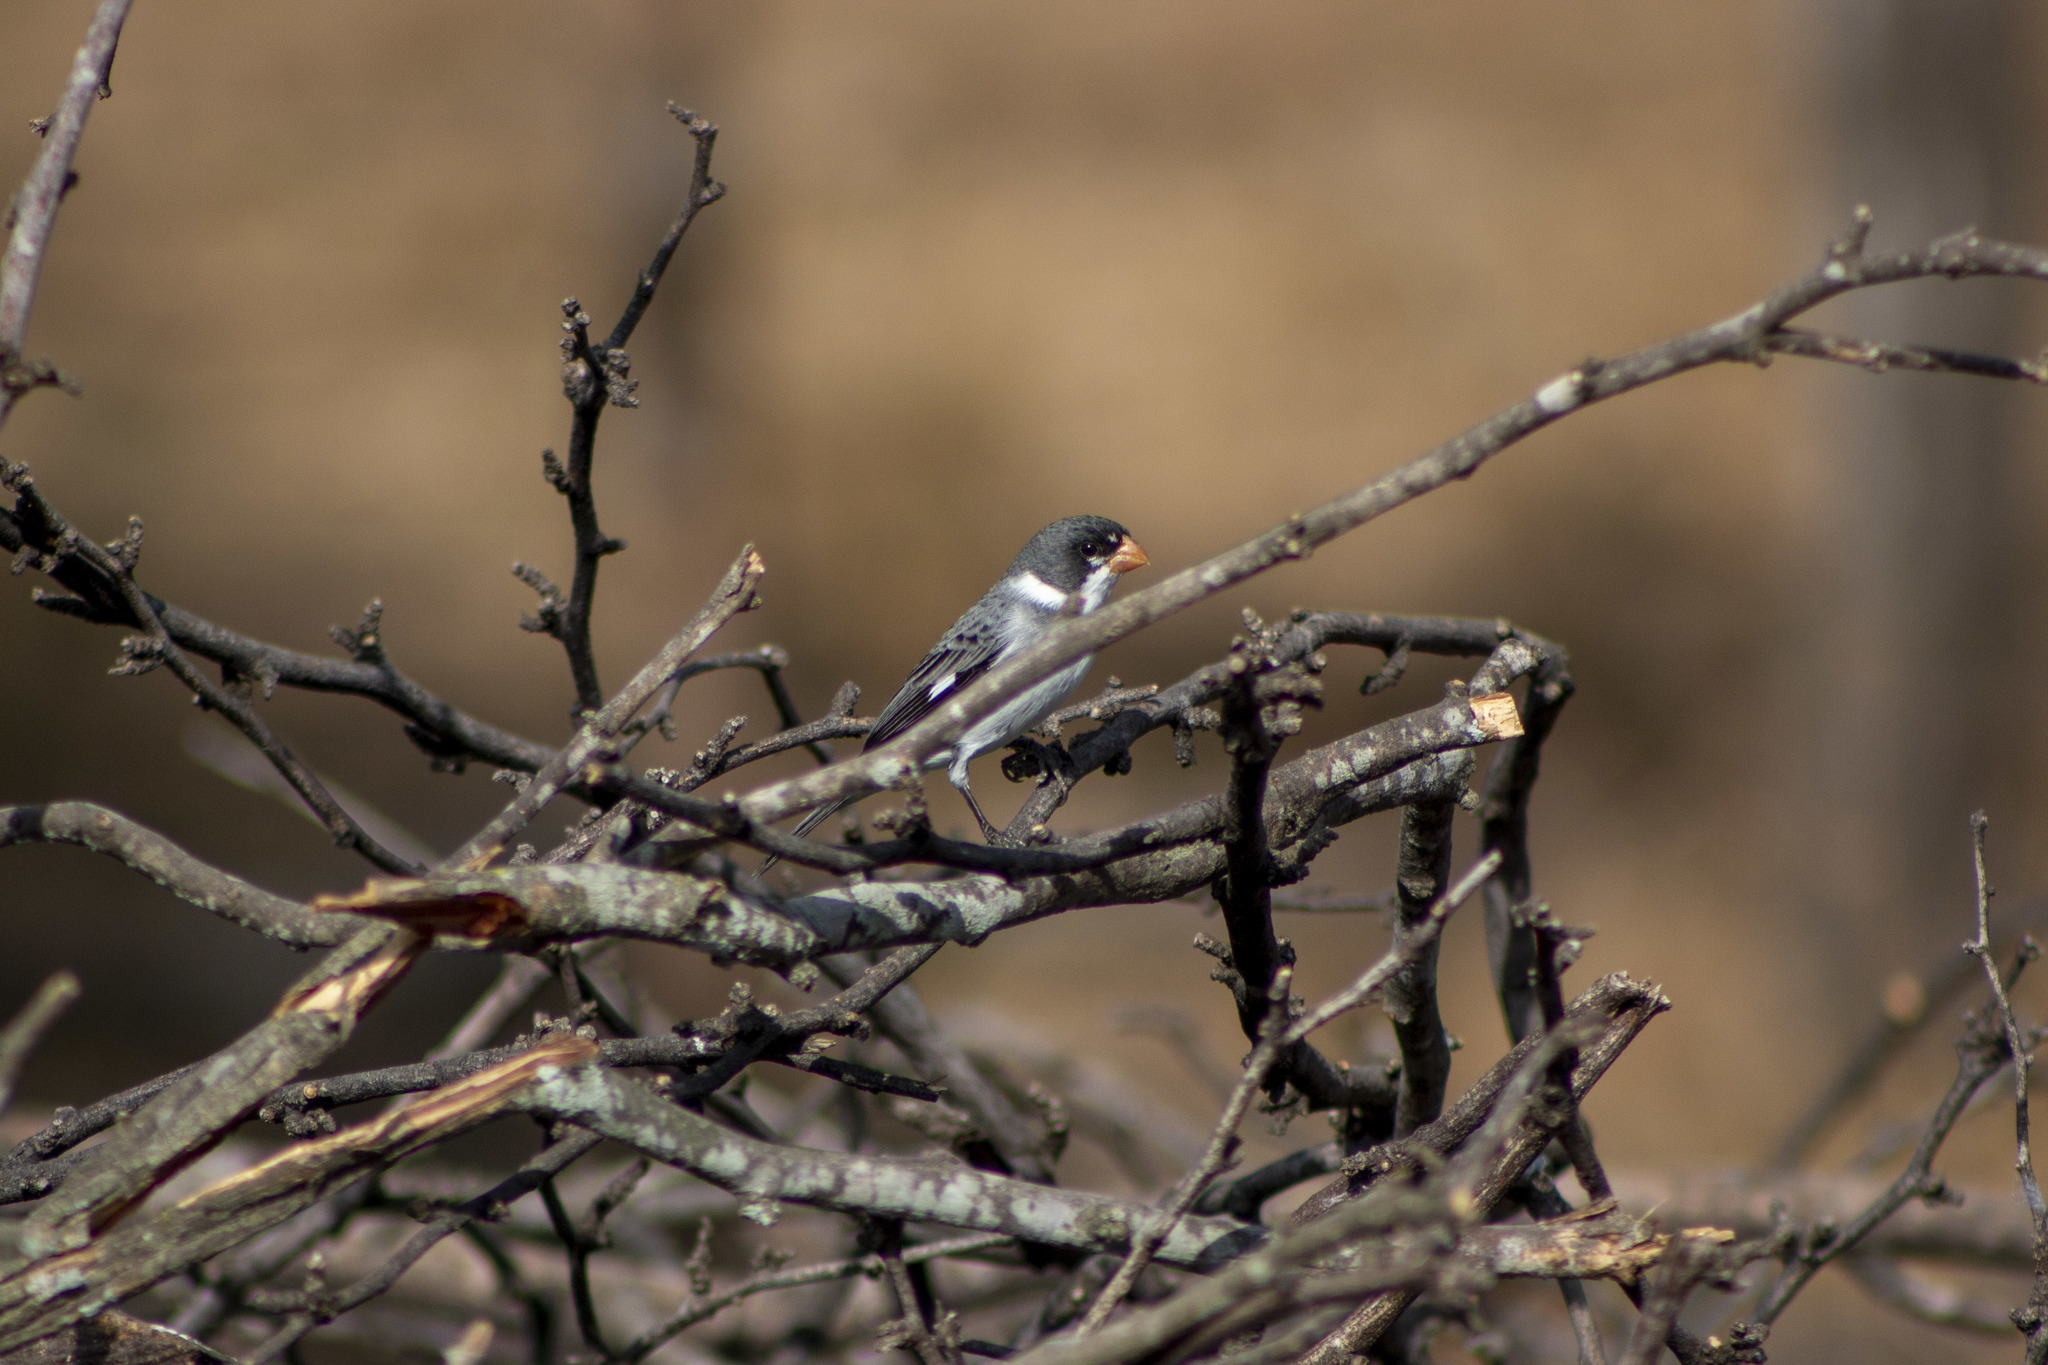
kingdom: Animalia
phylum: Chordata
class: Aves
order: Passeriformes
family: Thraupidae
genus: Sporophila
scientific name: Sporophila albogularis
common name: White-throated seedeater
